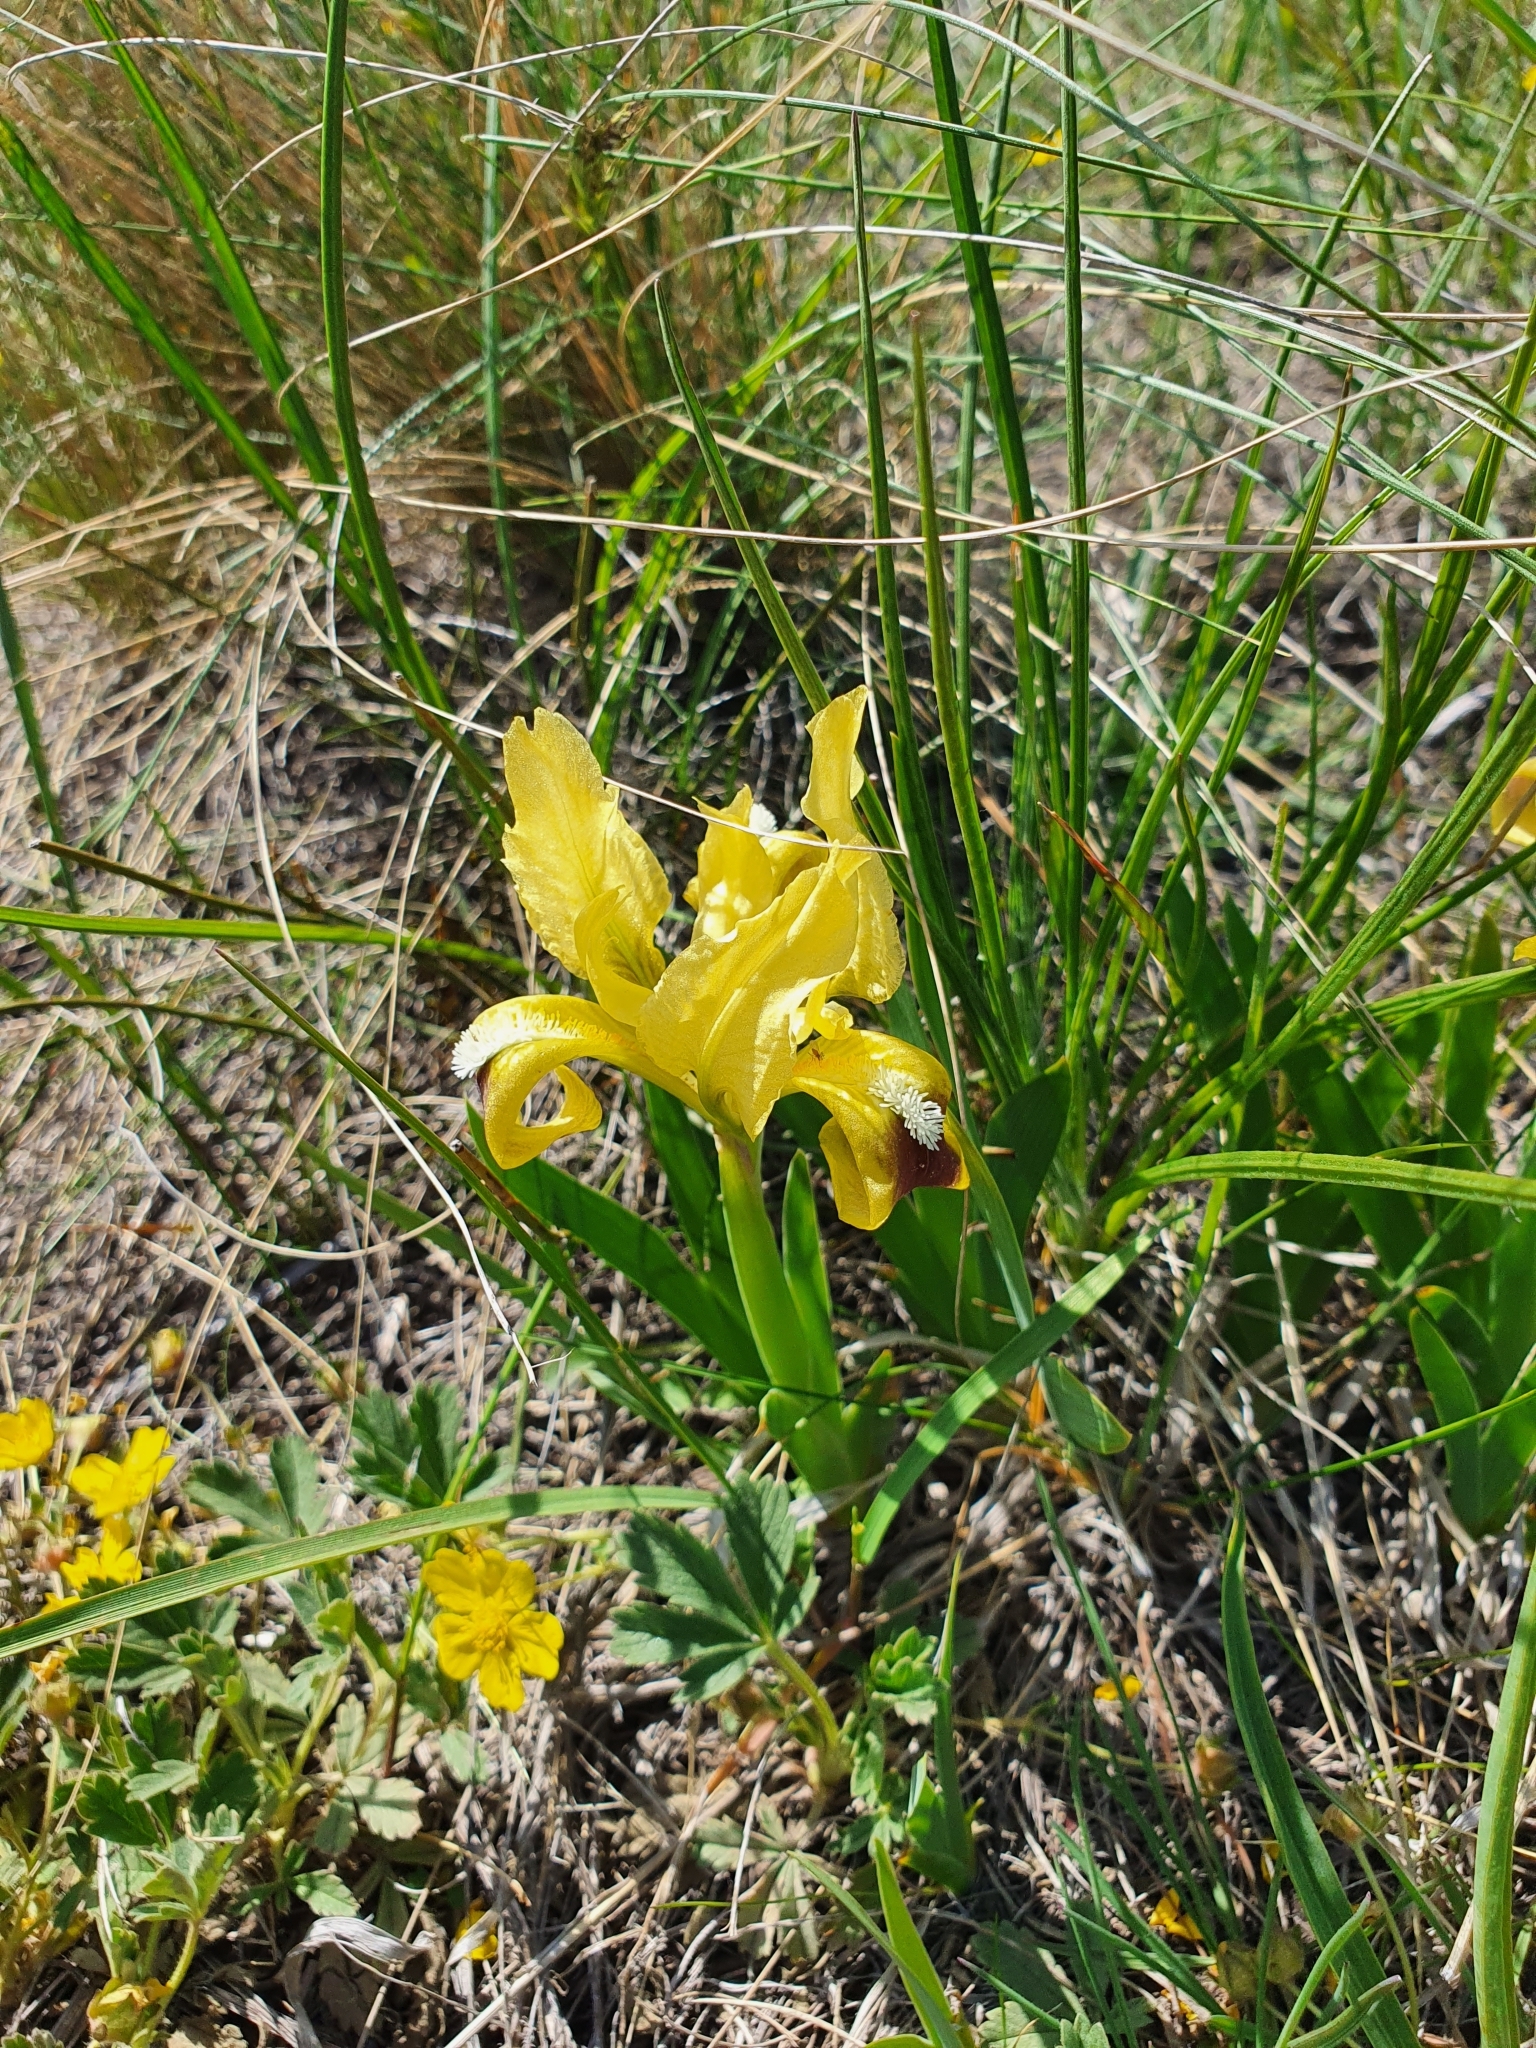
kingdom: Plantae
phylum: Tracheophyta
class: Liliopsida
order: Asparagales
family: Iridaceae
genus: Iris
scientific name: Iris pumila
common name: Dwarf iris
